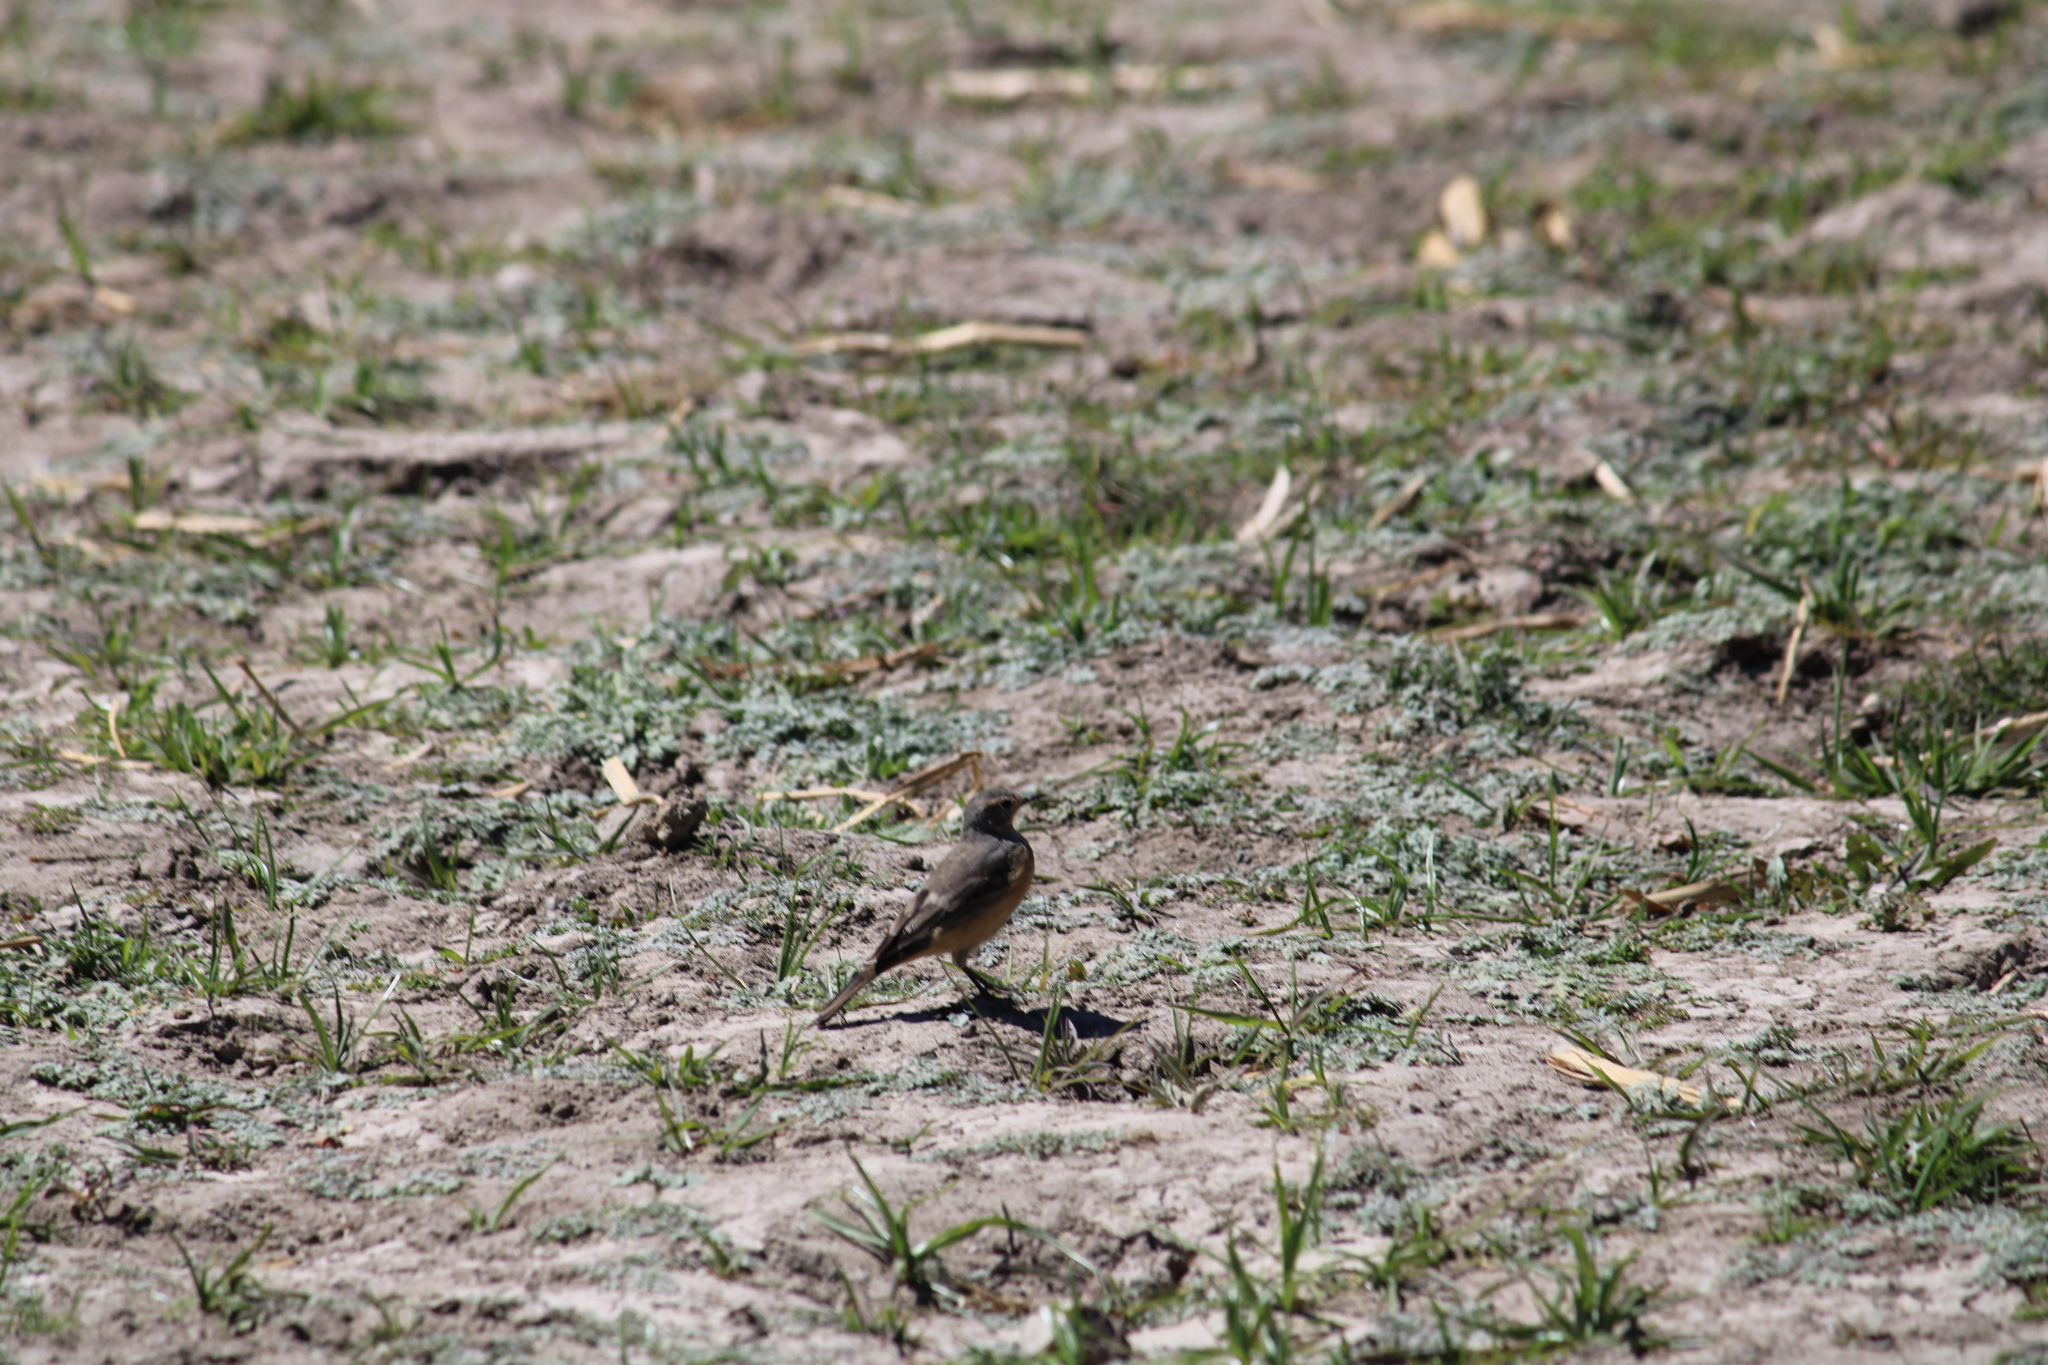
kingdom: Animalia
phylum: Chordata
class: Aves
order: Passeriformes
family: Motacillidae
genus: Anthus
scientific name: Anthus rubescens
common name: Buff-bellied pipit
